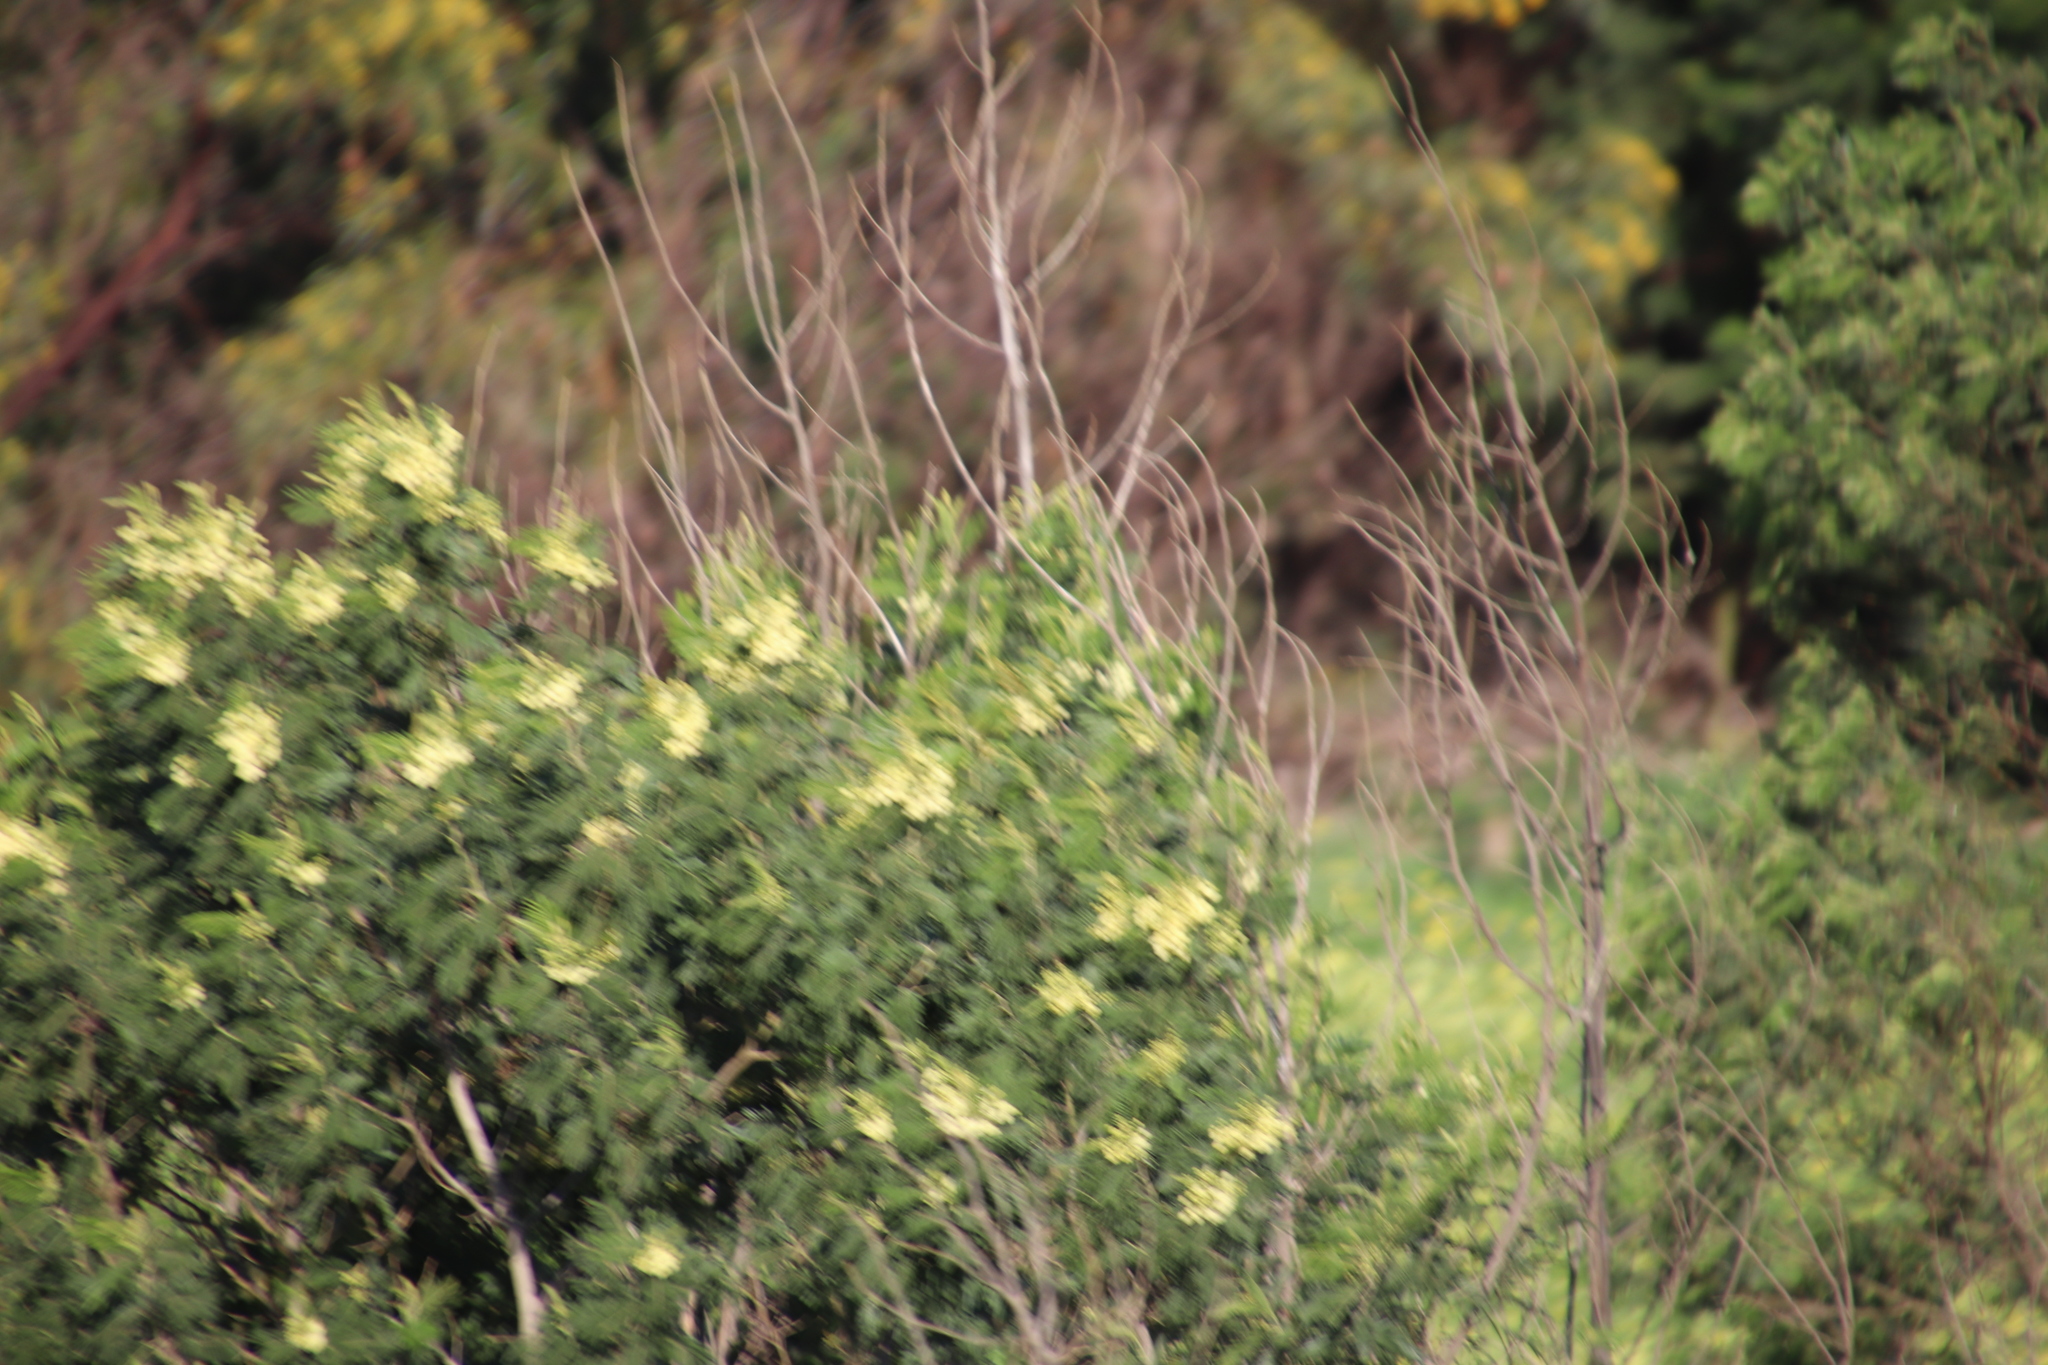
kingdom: Plantae
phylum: Tracheophyta
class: Magnoliopsida
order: Fabales
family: Fabaceae
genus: Acacia
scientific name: Acacia mearnsii
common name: Black wattle
